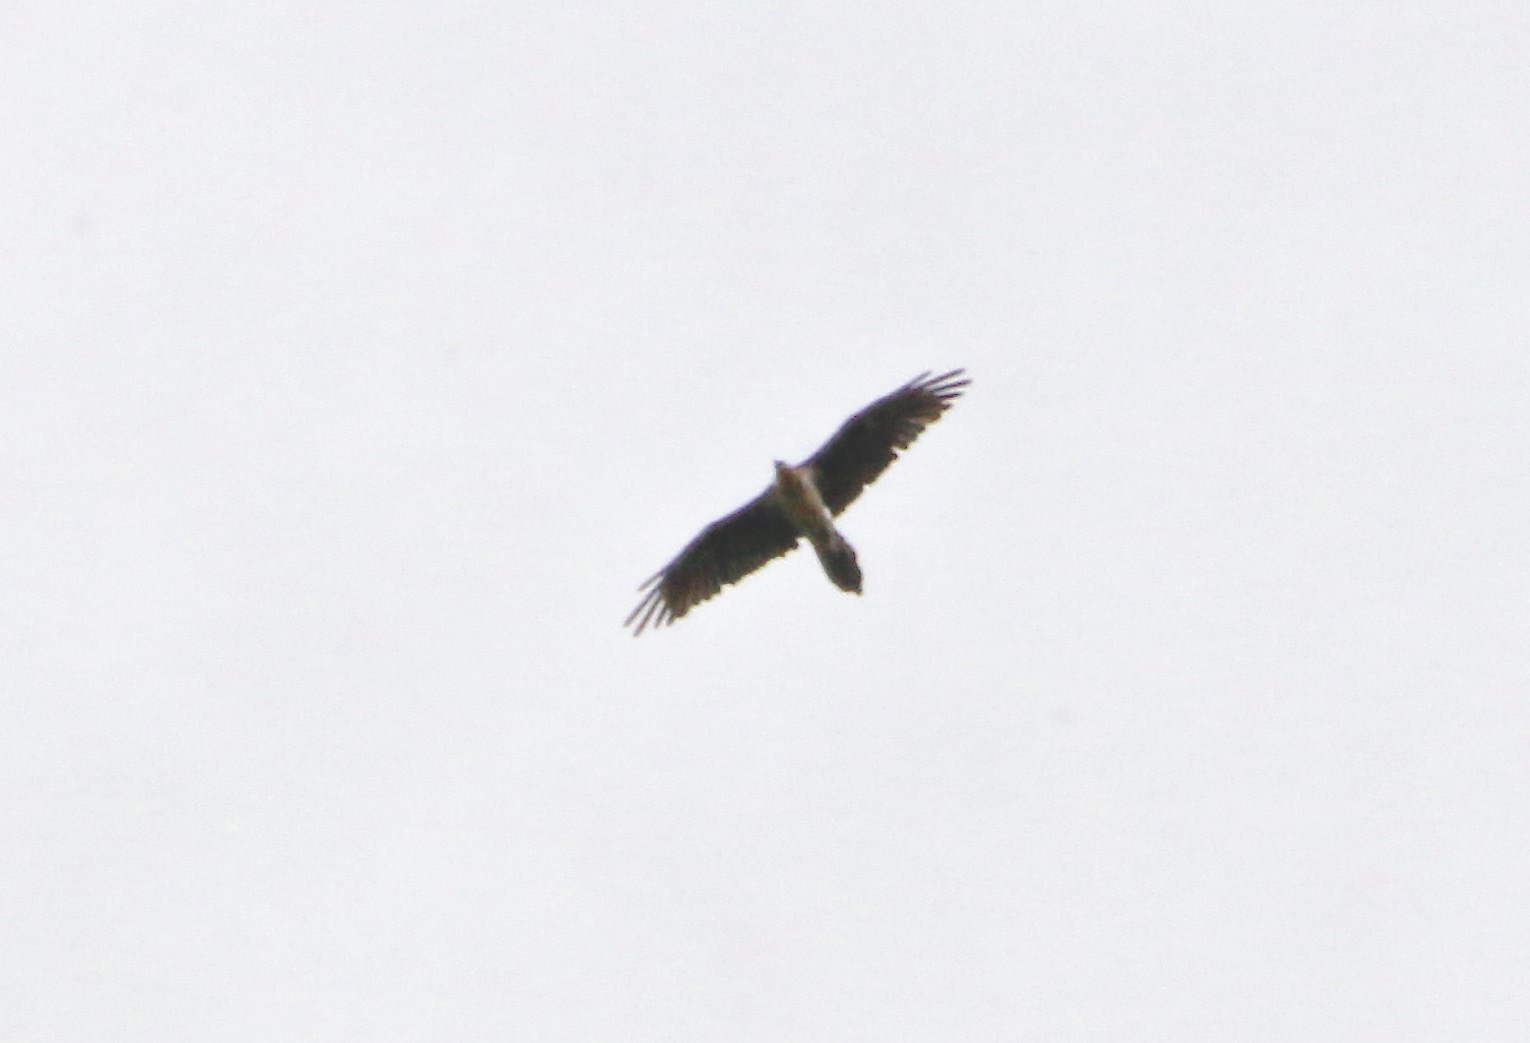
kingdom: Animalia
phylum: Chordata
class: Aves
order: Accipitriformes
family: Accipitridae
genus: Gypaetus
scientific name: Gypaetus barbatus
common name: Bearded vulture
